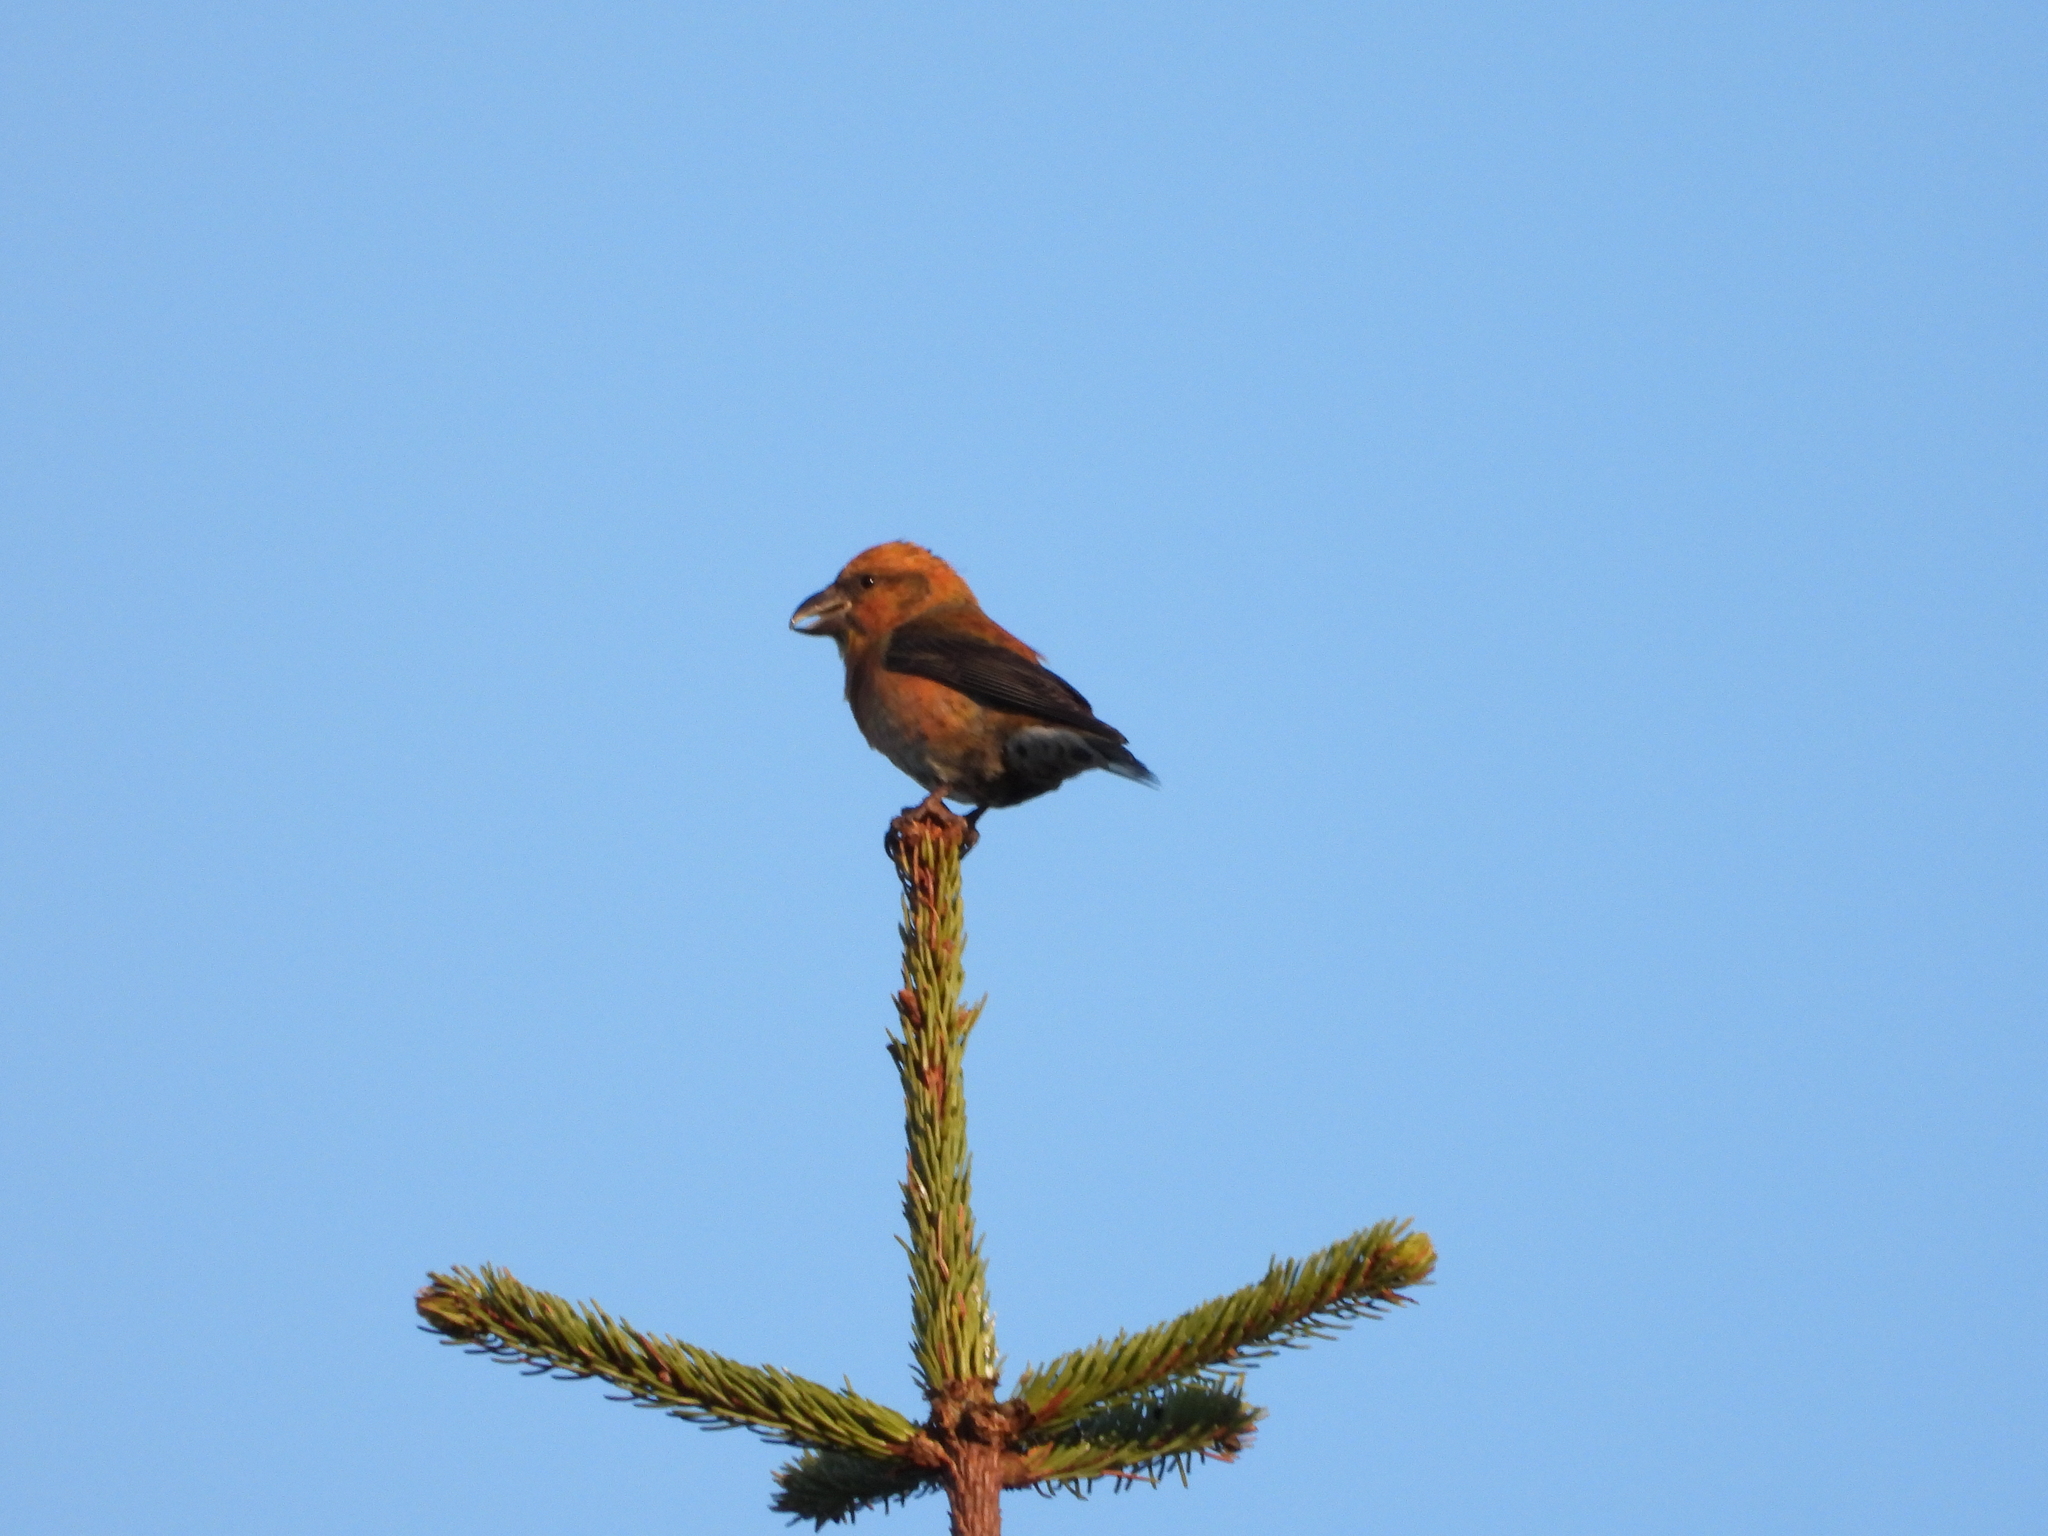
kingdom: Animalia
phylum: Chordata
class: Aves
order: Passeriformes
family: Fringillidae
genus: Loxia
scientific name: Loxia curvirostra
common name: Red crossbill
